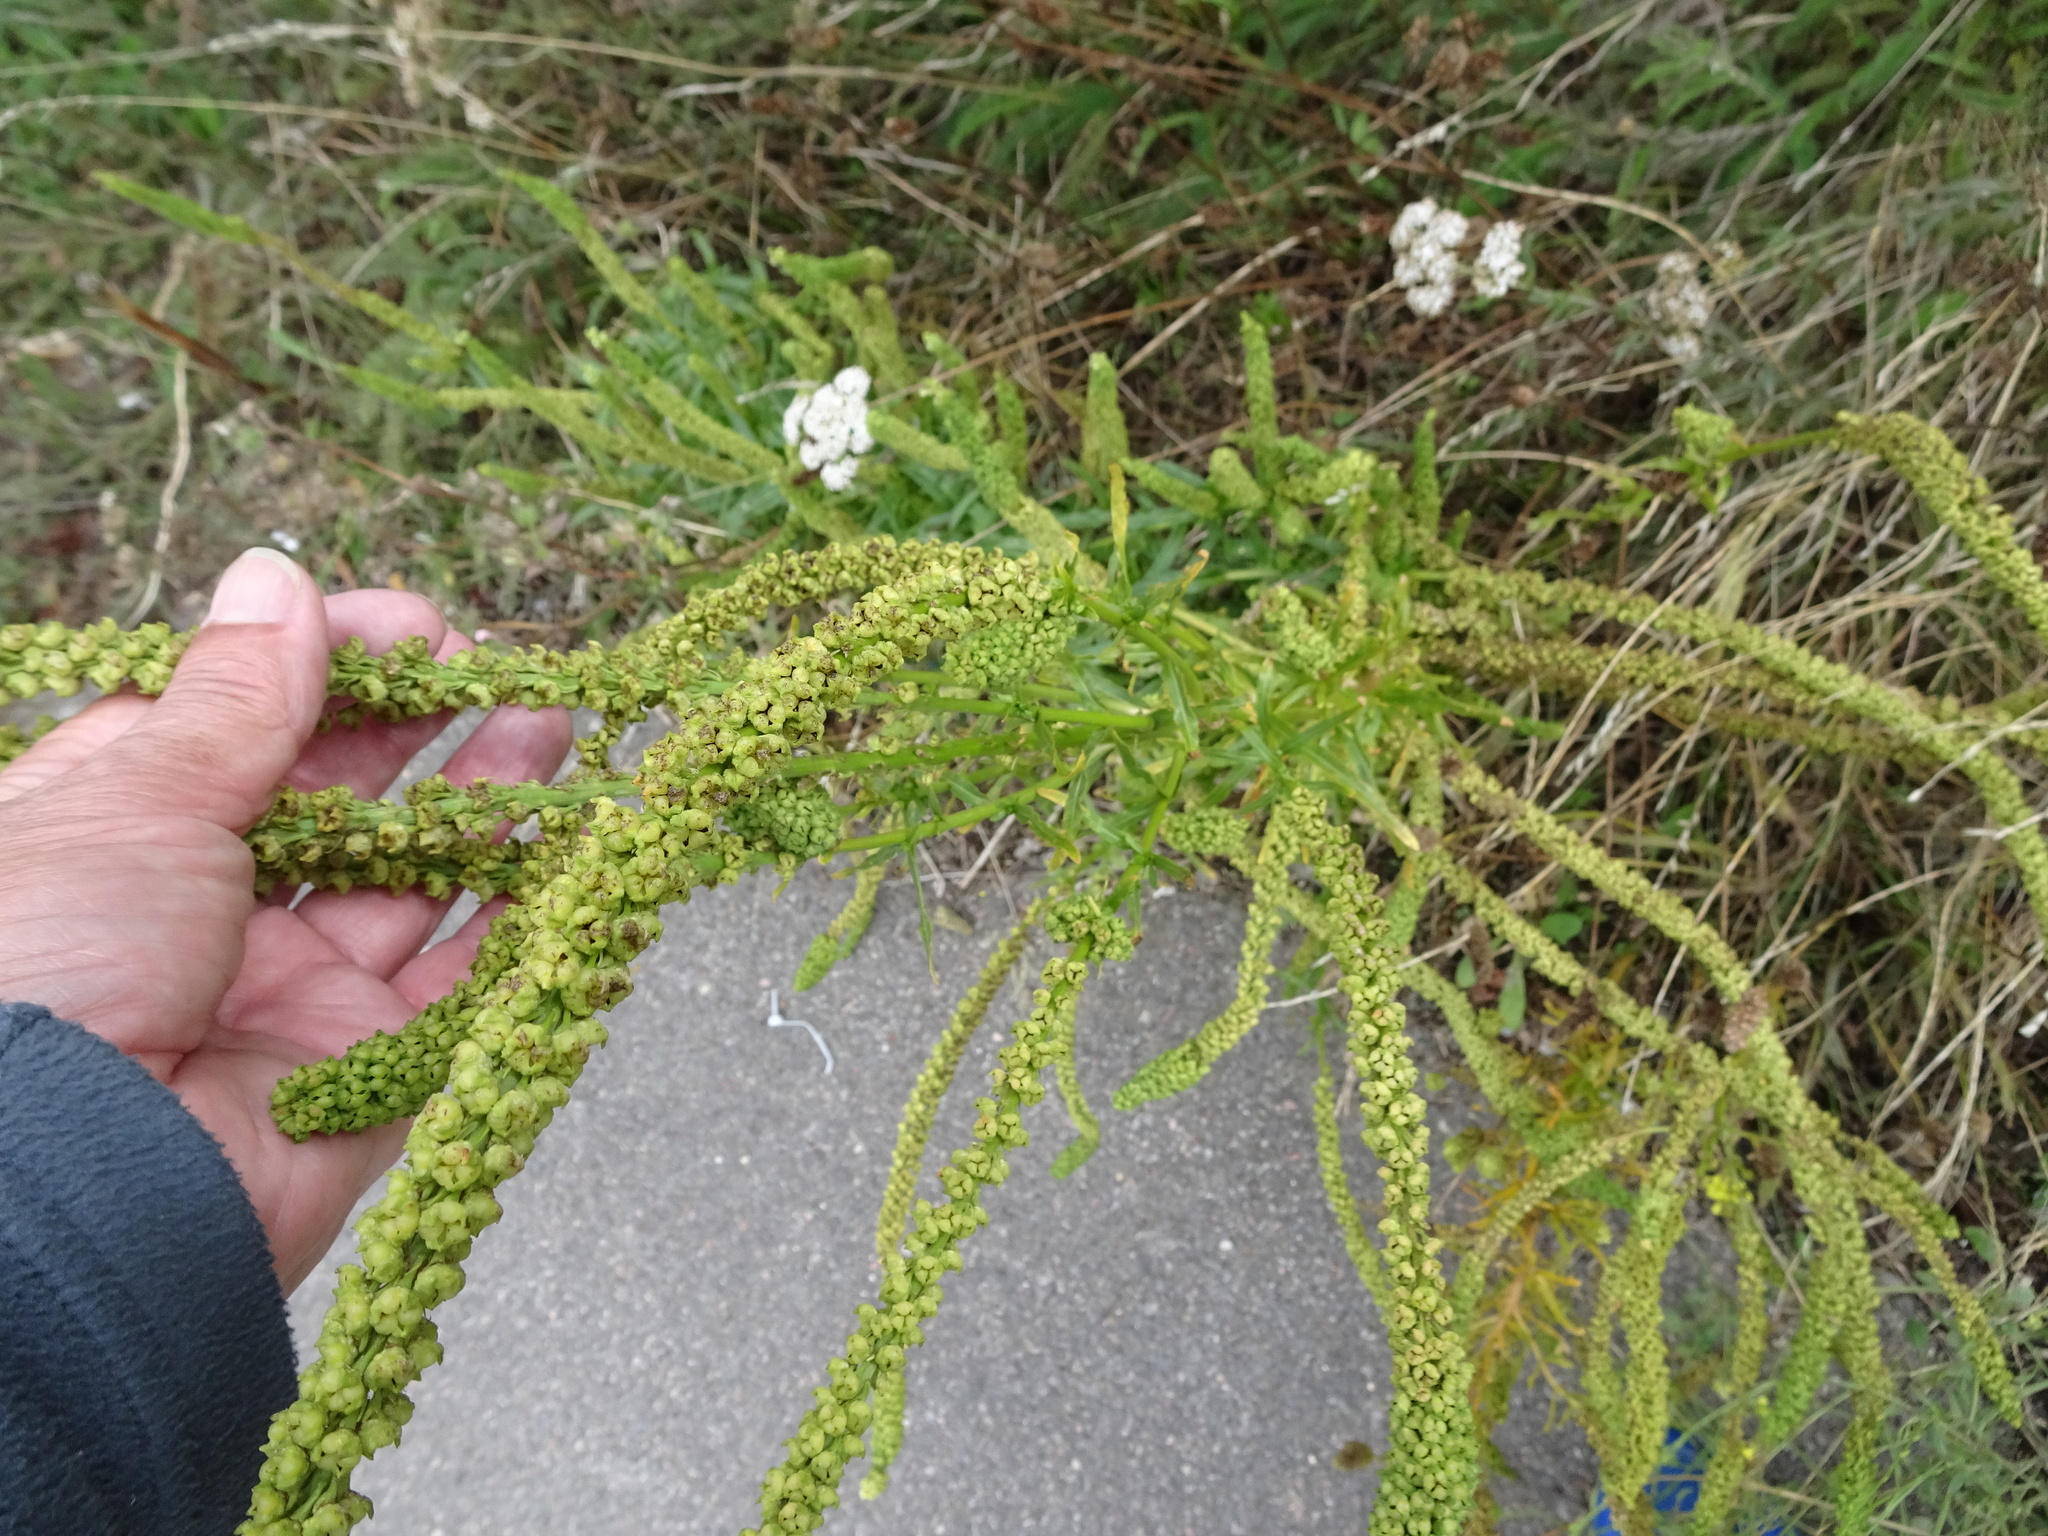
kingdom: Plantae
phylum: Tracheophyta
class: Magnoliopsida
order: Brassicales
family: Resedaceae
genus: Reseda
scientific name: Reseda luteola
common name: Weld
